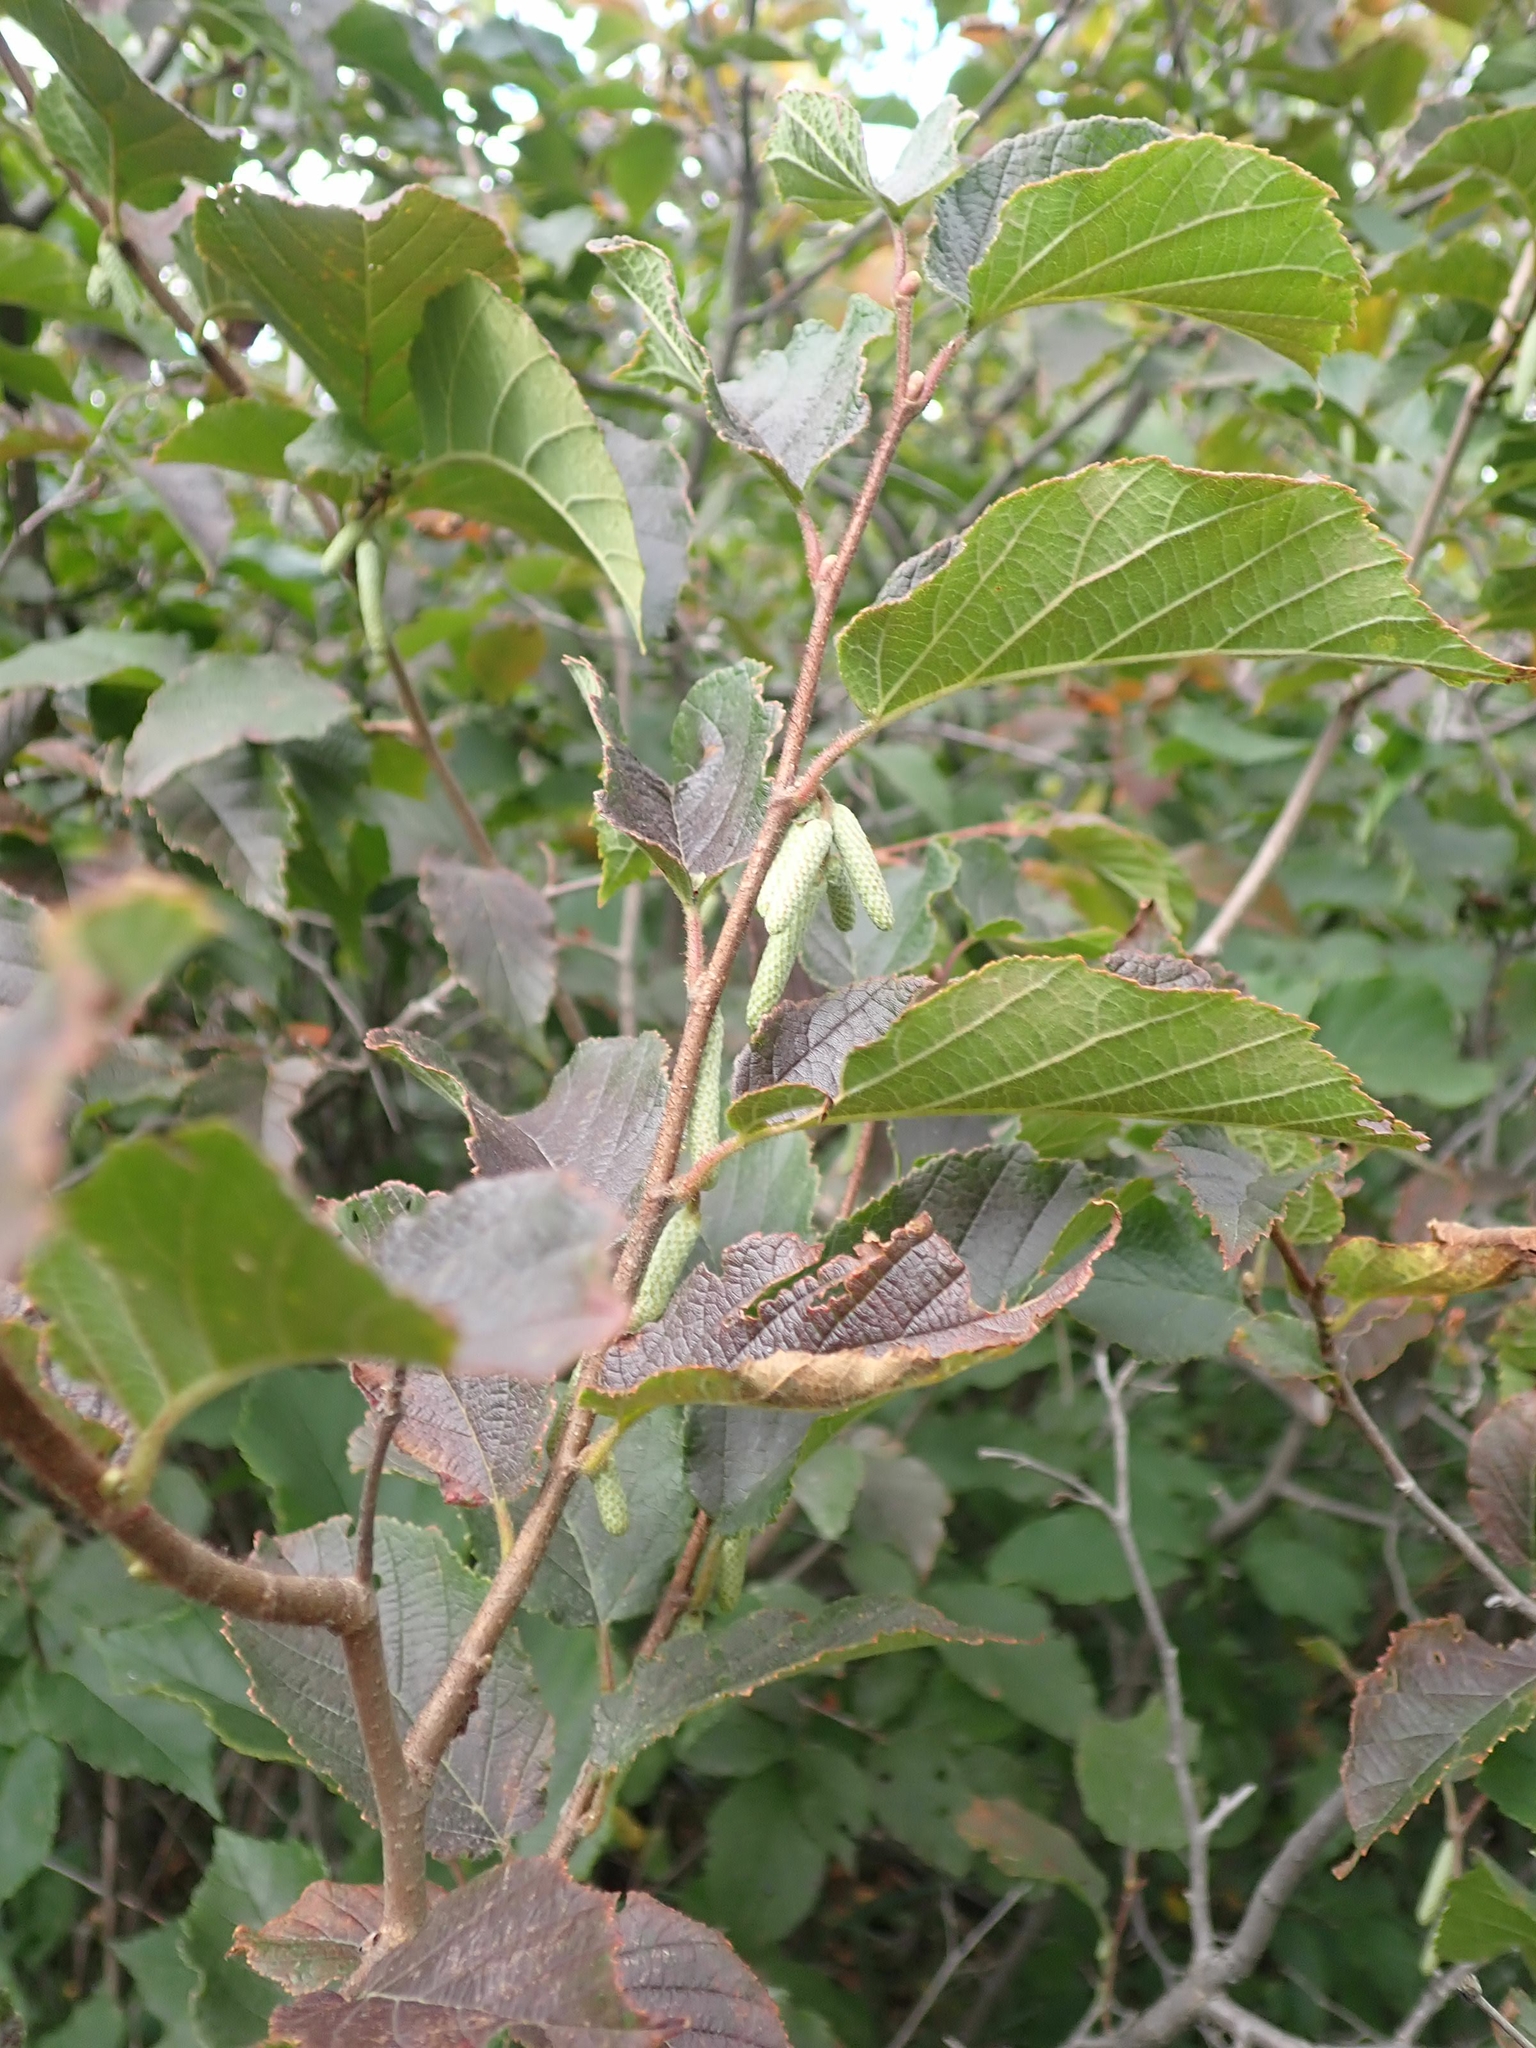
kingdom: Plantae
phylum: Tracheophyta
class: Magnoliopsida
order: Fagales
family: Betulaceae
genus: Corylus
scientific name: Corylus americana
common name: American hazel
